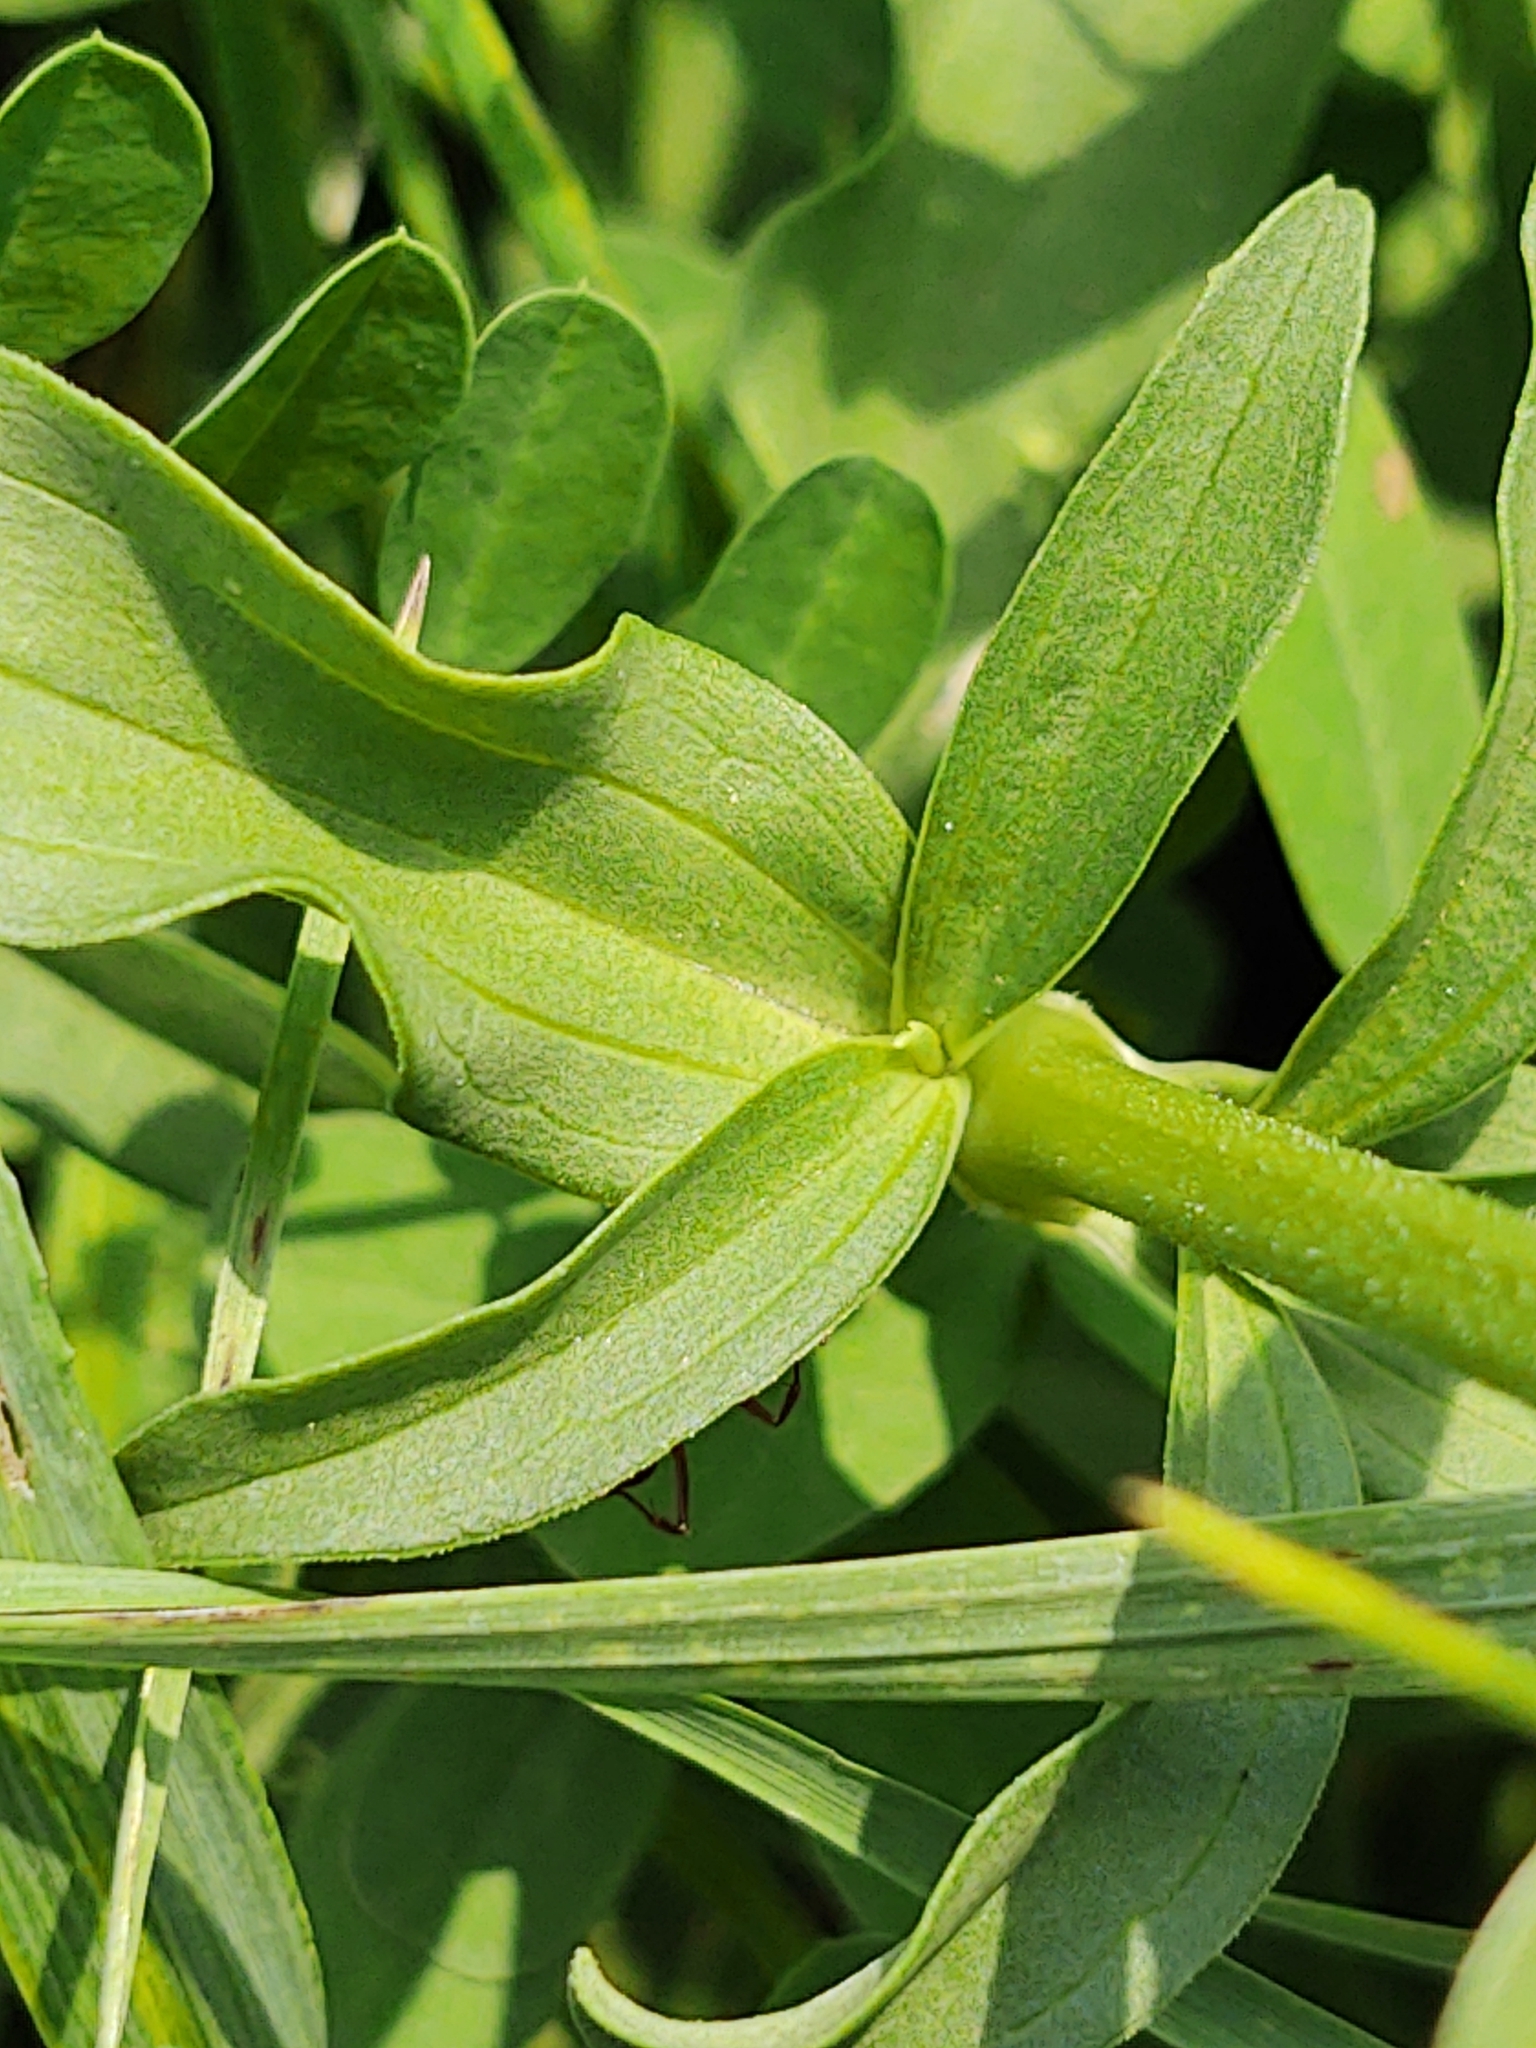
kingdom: Plantae
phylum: Tracheophyta
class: Magnoliopsida
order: Caryophyllales
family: Caryophyllaceae
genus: Saponaria
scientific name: Saponaria officinalis
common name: Soapwort
